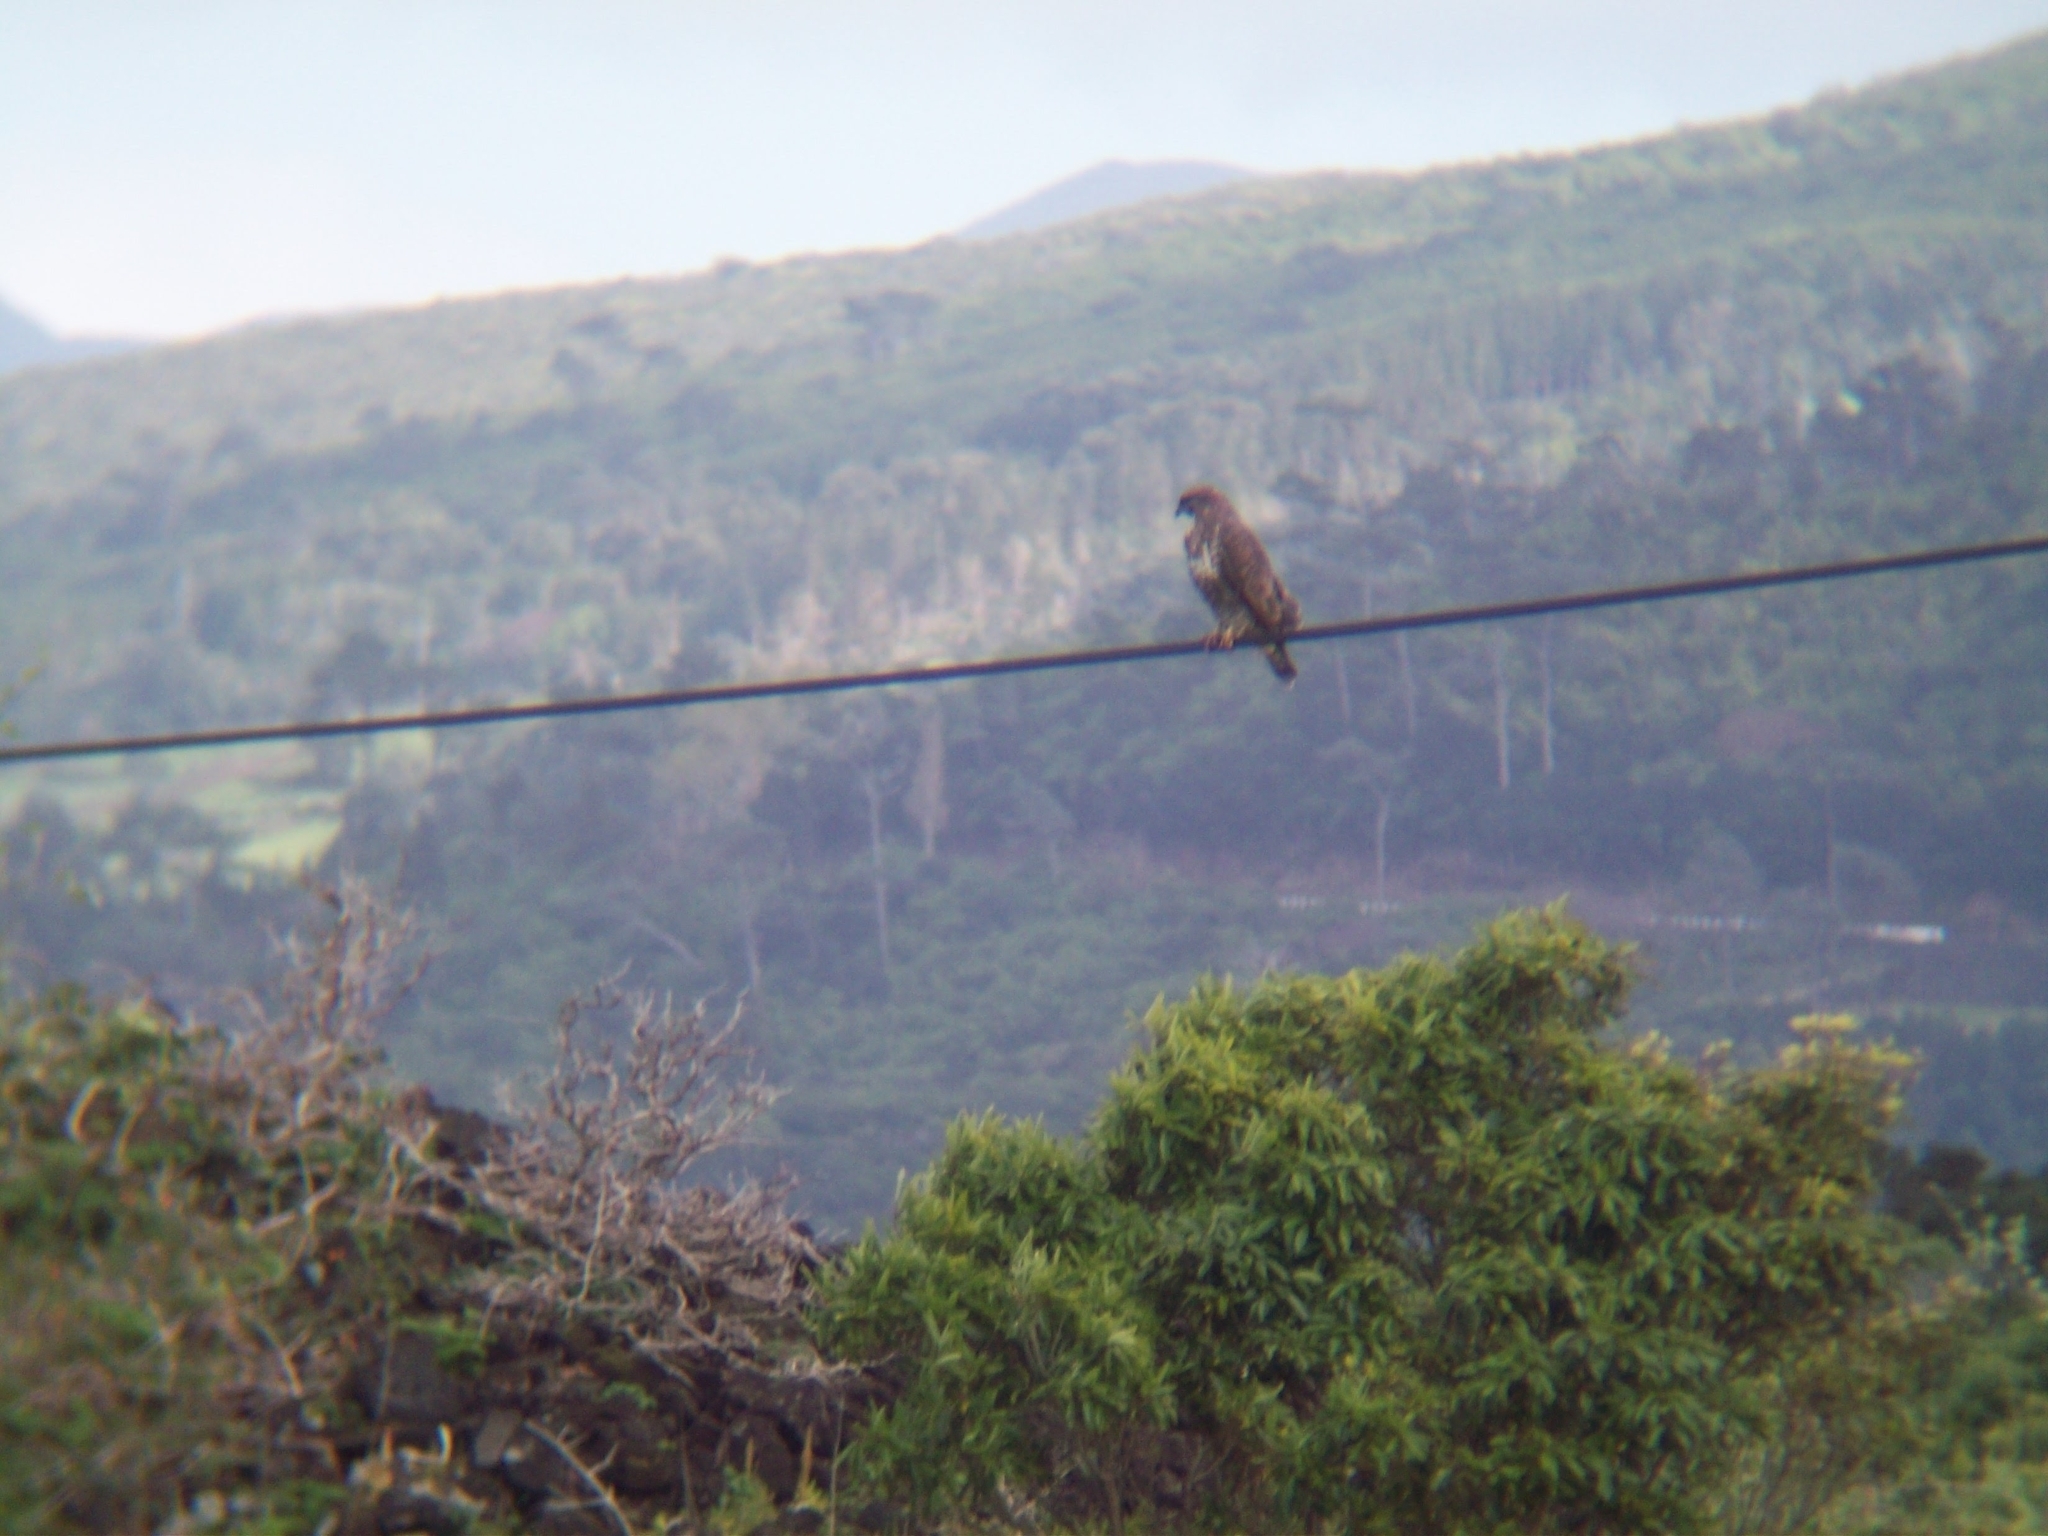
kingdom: Animalia
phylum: Chordata
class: Aves
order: Accipitriformes
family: Accipitridae
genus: Buteo
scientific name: Buteo buteo
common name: Common buzzard
